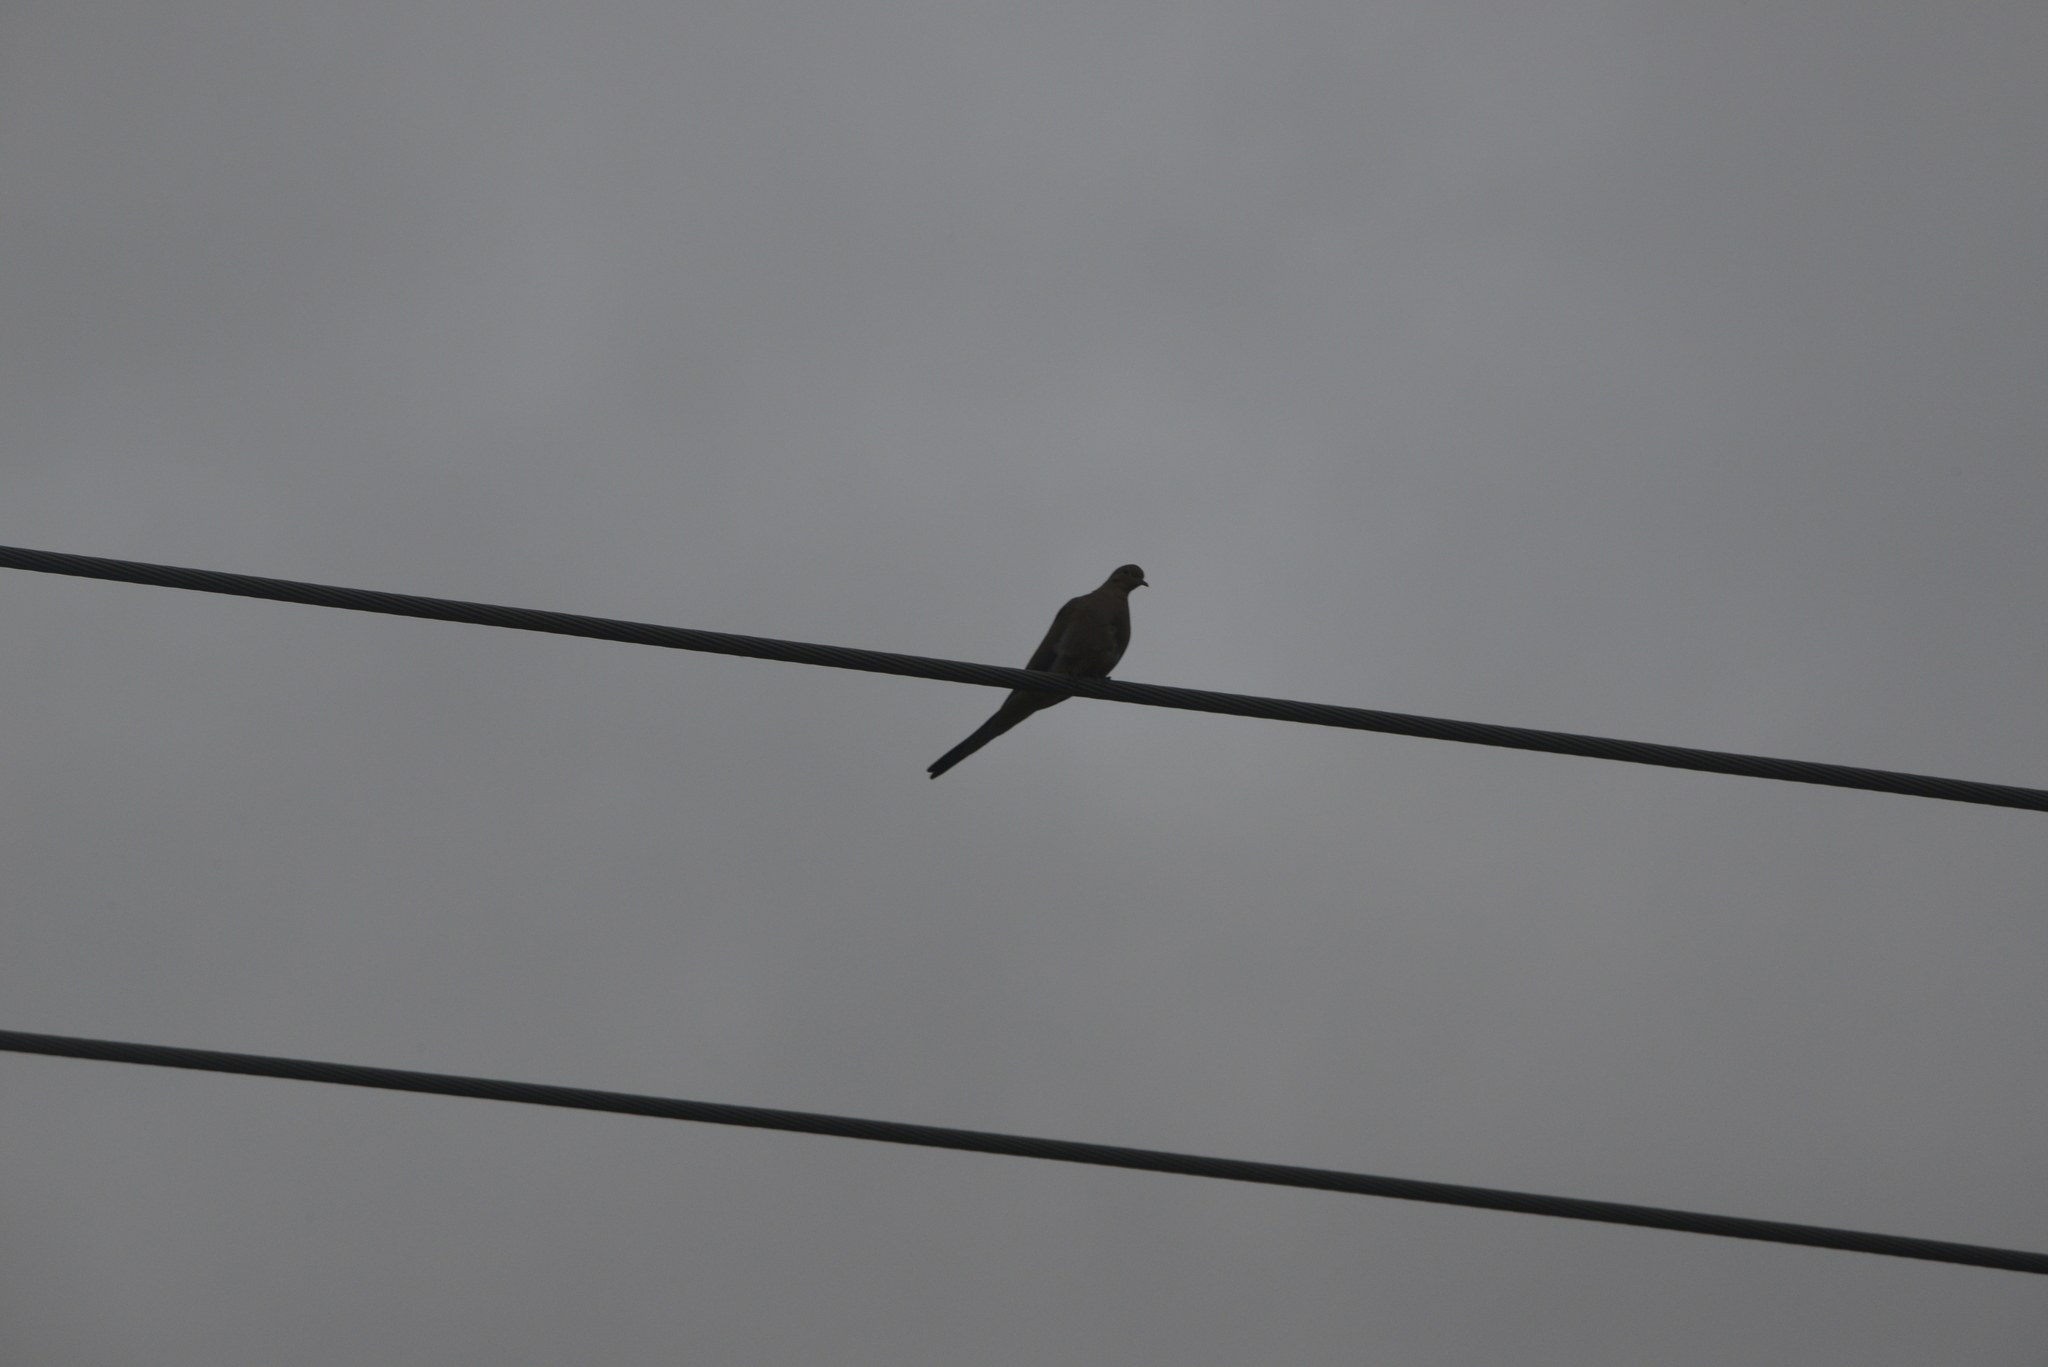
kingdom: Animalia
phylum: Chordata
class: Aves
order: Columbiformes
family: Columbidae
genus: Zenaida
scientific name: Zenaida macroura
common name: Mourning dove
